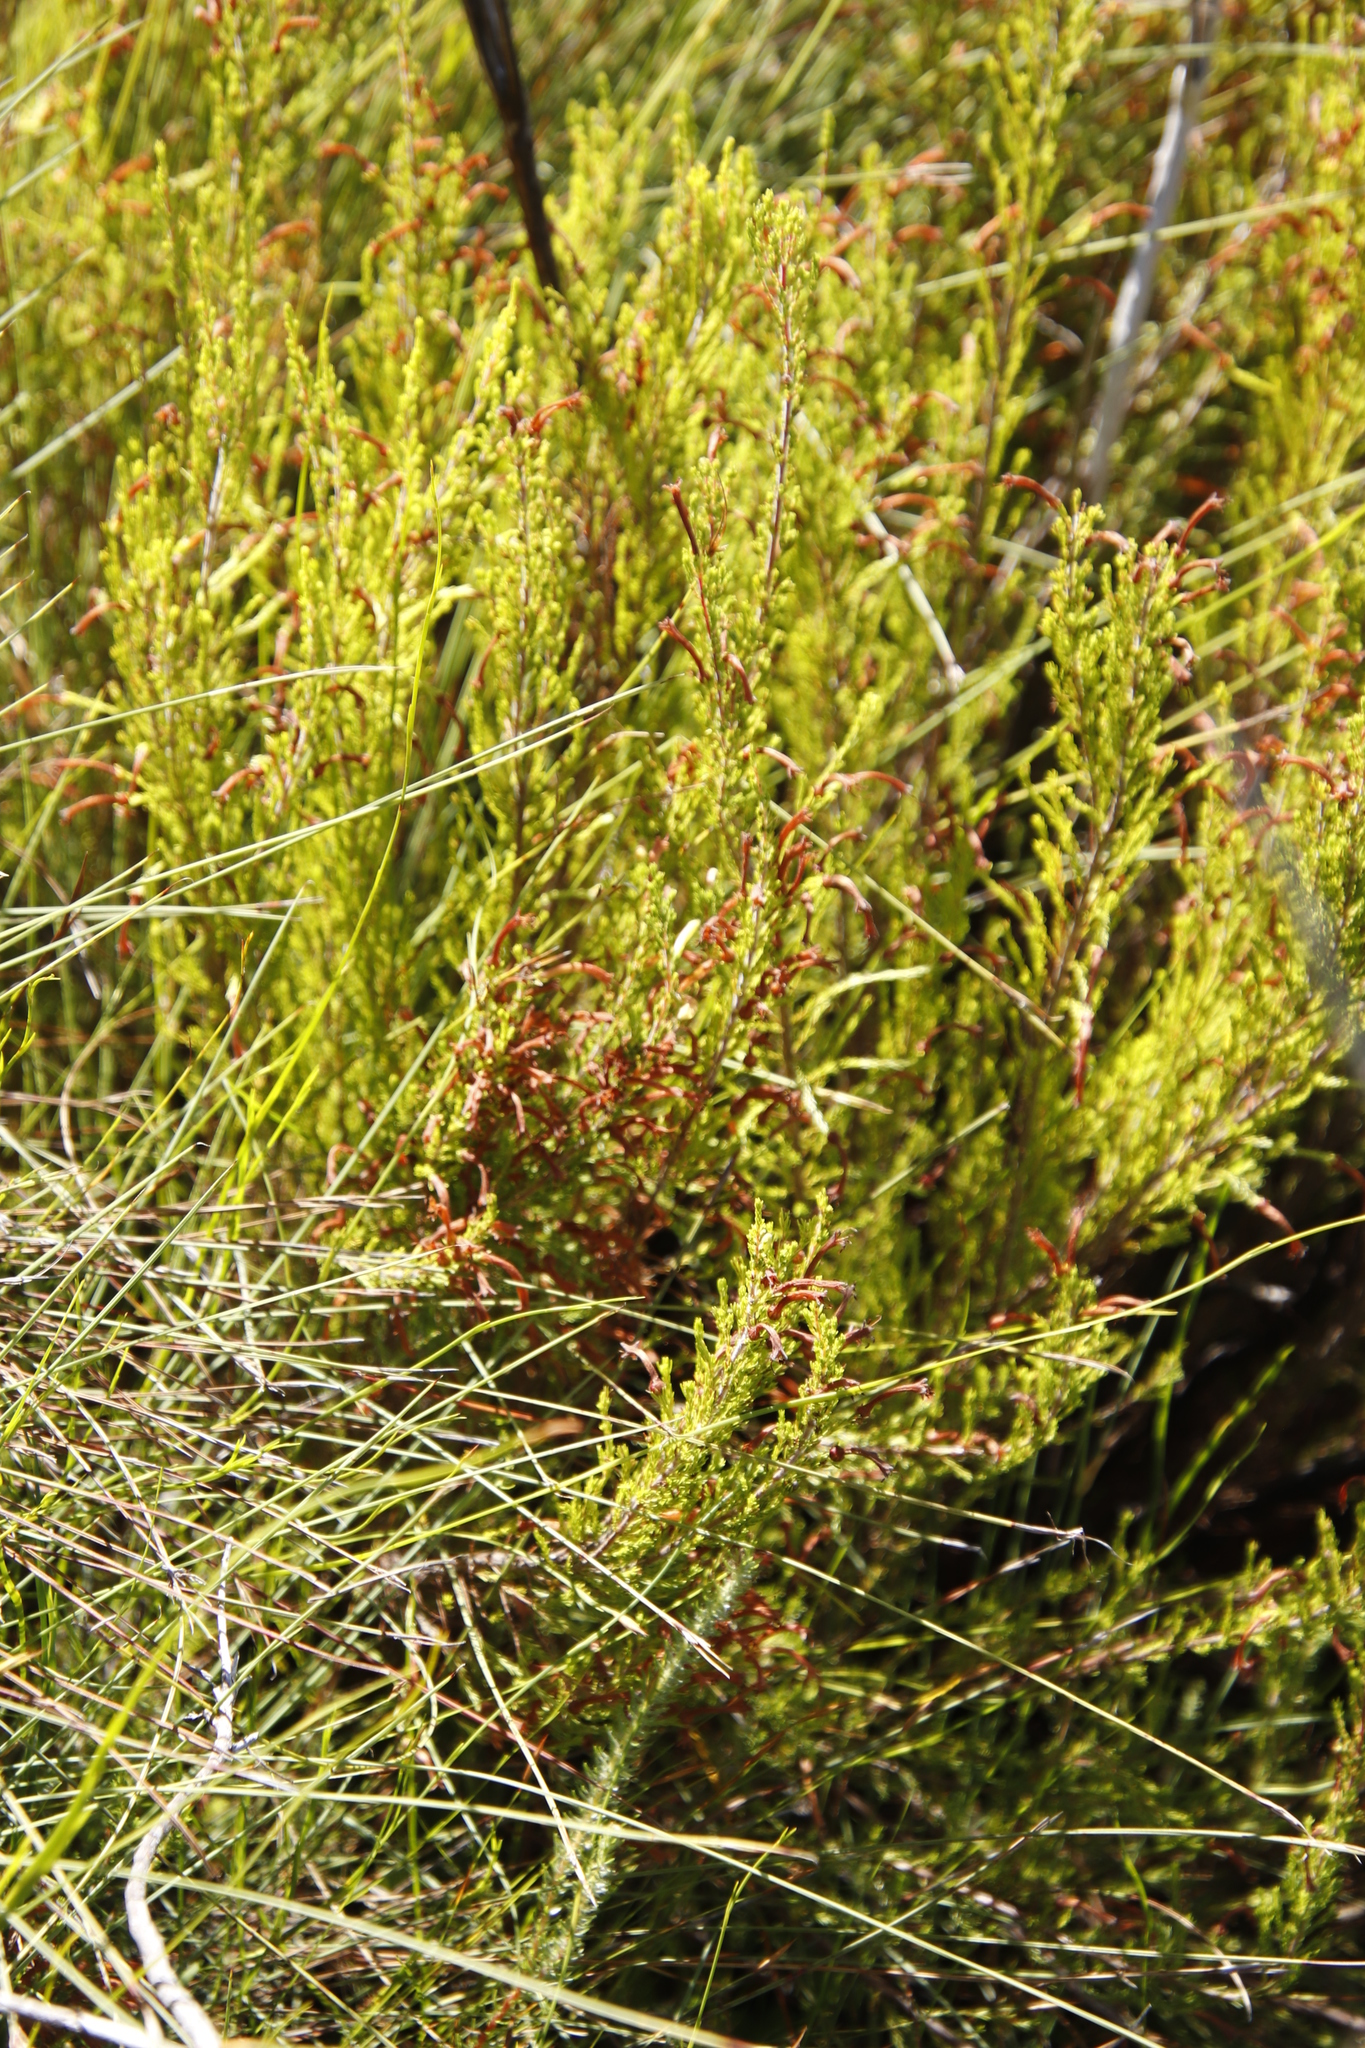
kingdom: Plantae
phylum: Tracheophyta
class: Magnoliopsida
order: Ericales
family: Ericaceae
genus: Erica
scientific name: Erica curviflora
